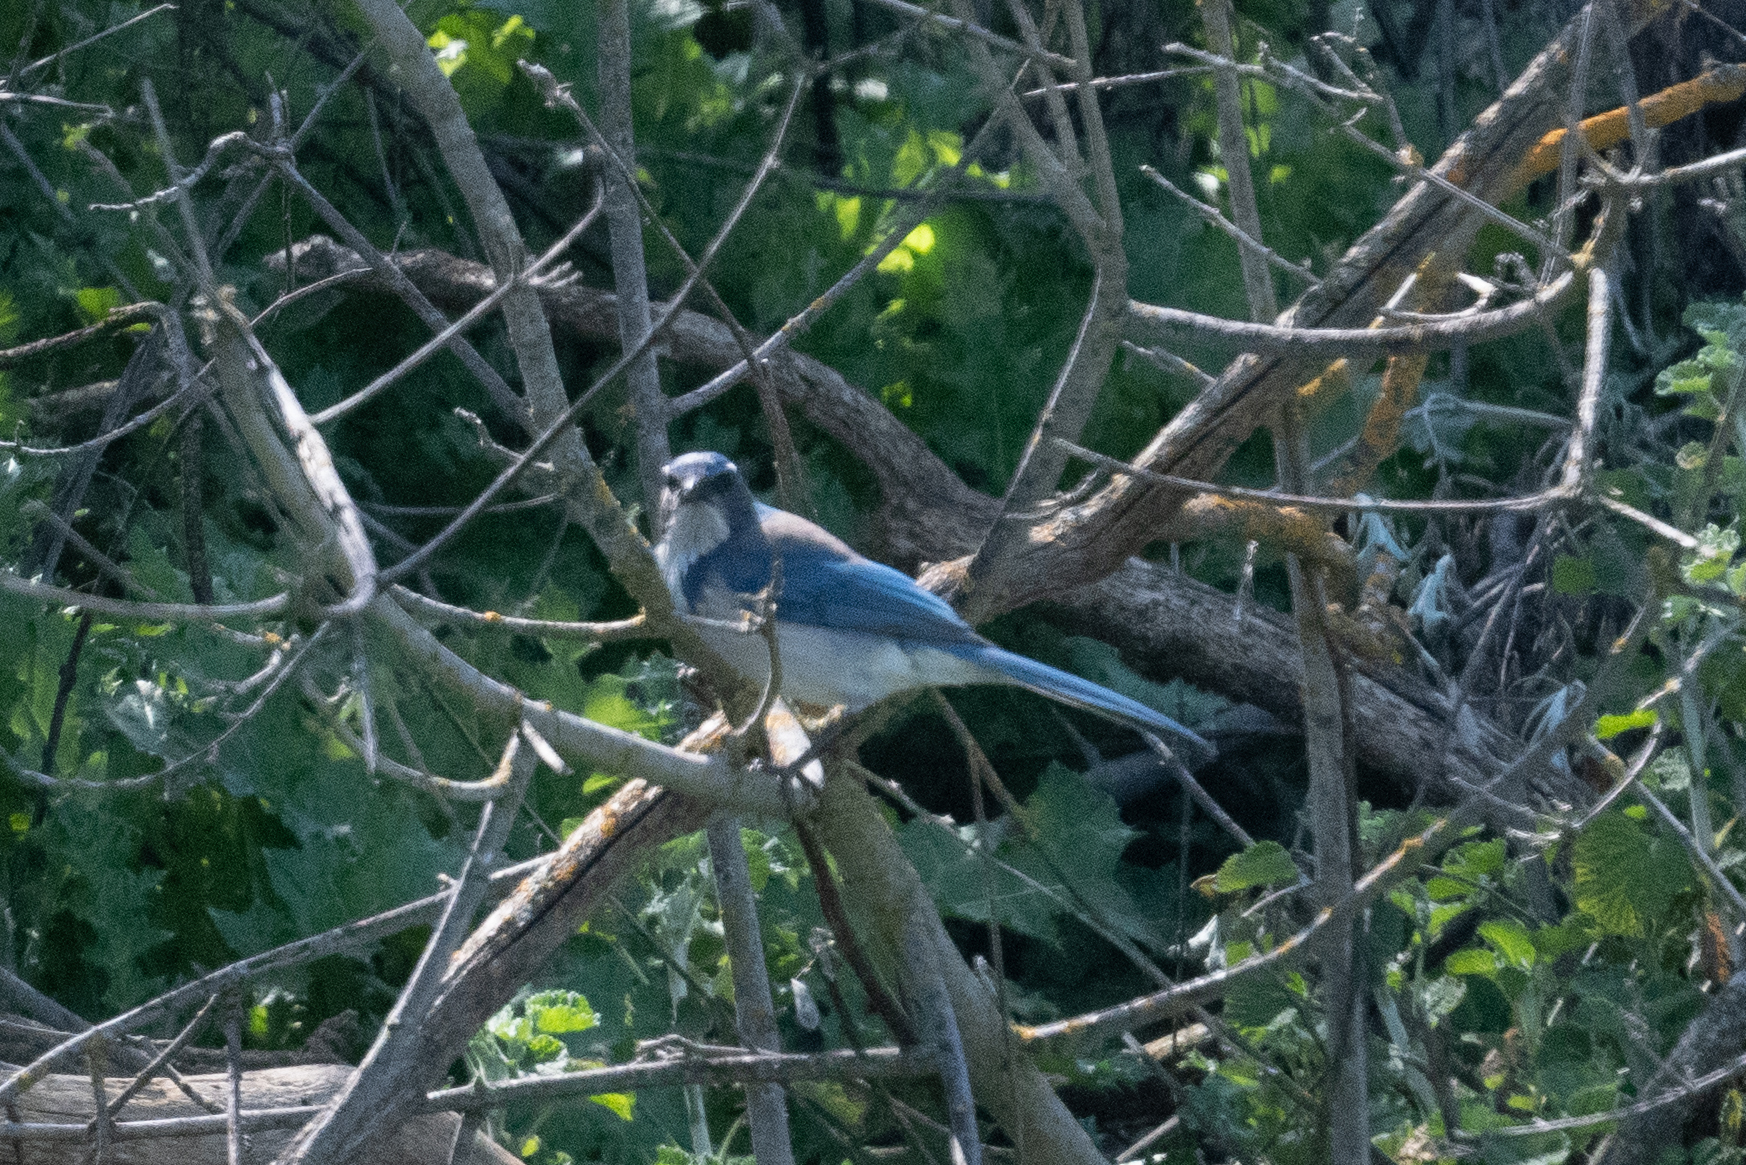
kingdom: Animalia
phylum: Chordata
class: Aves
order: Passeriformes
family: Corvidae
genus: Aphelocoma
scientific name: Aphelocoma californica
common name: California scrub-jay
